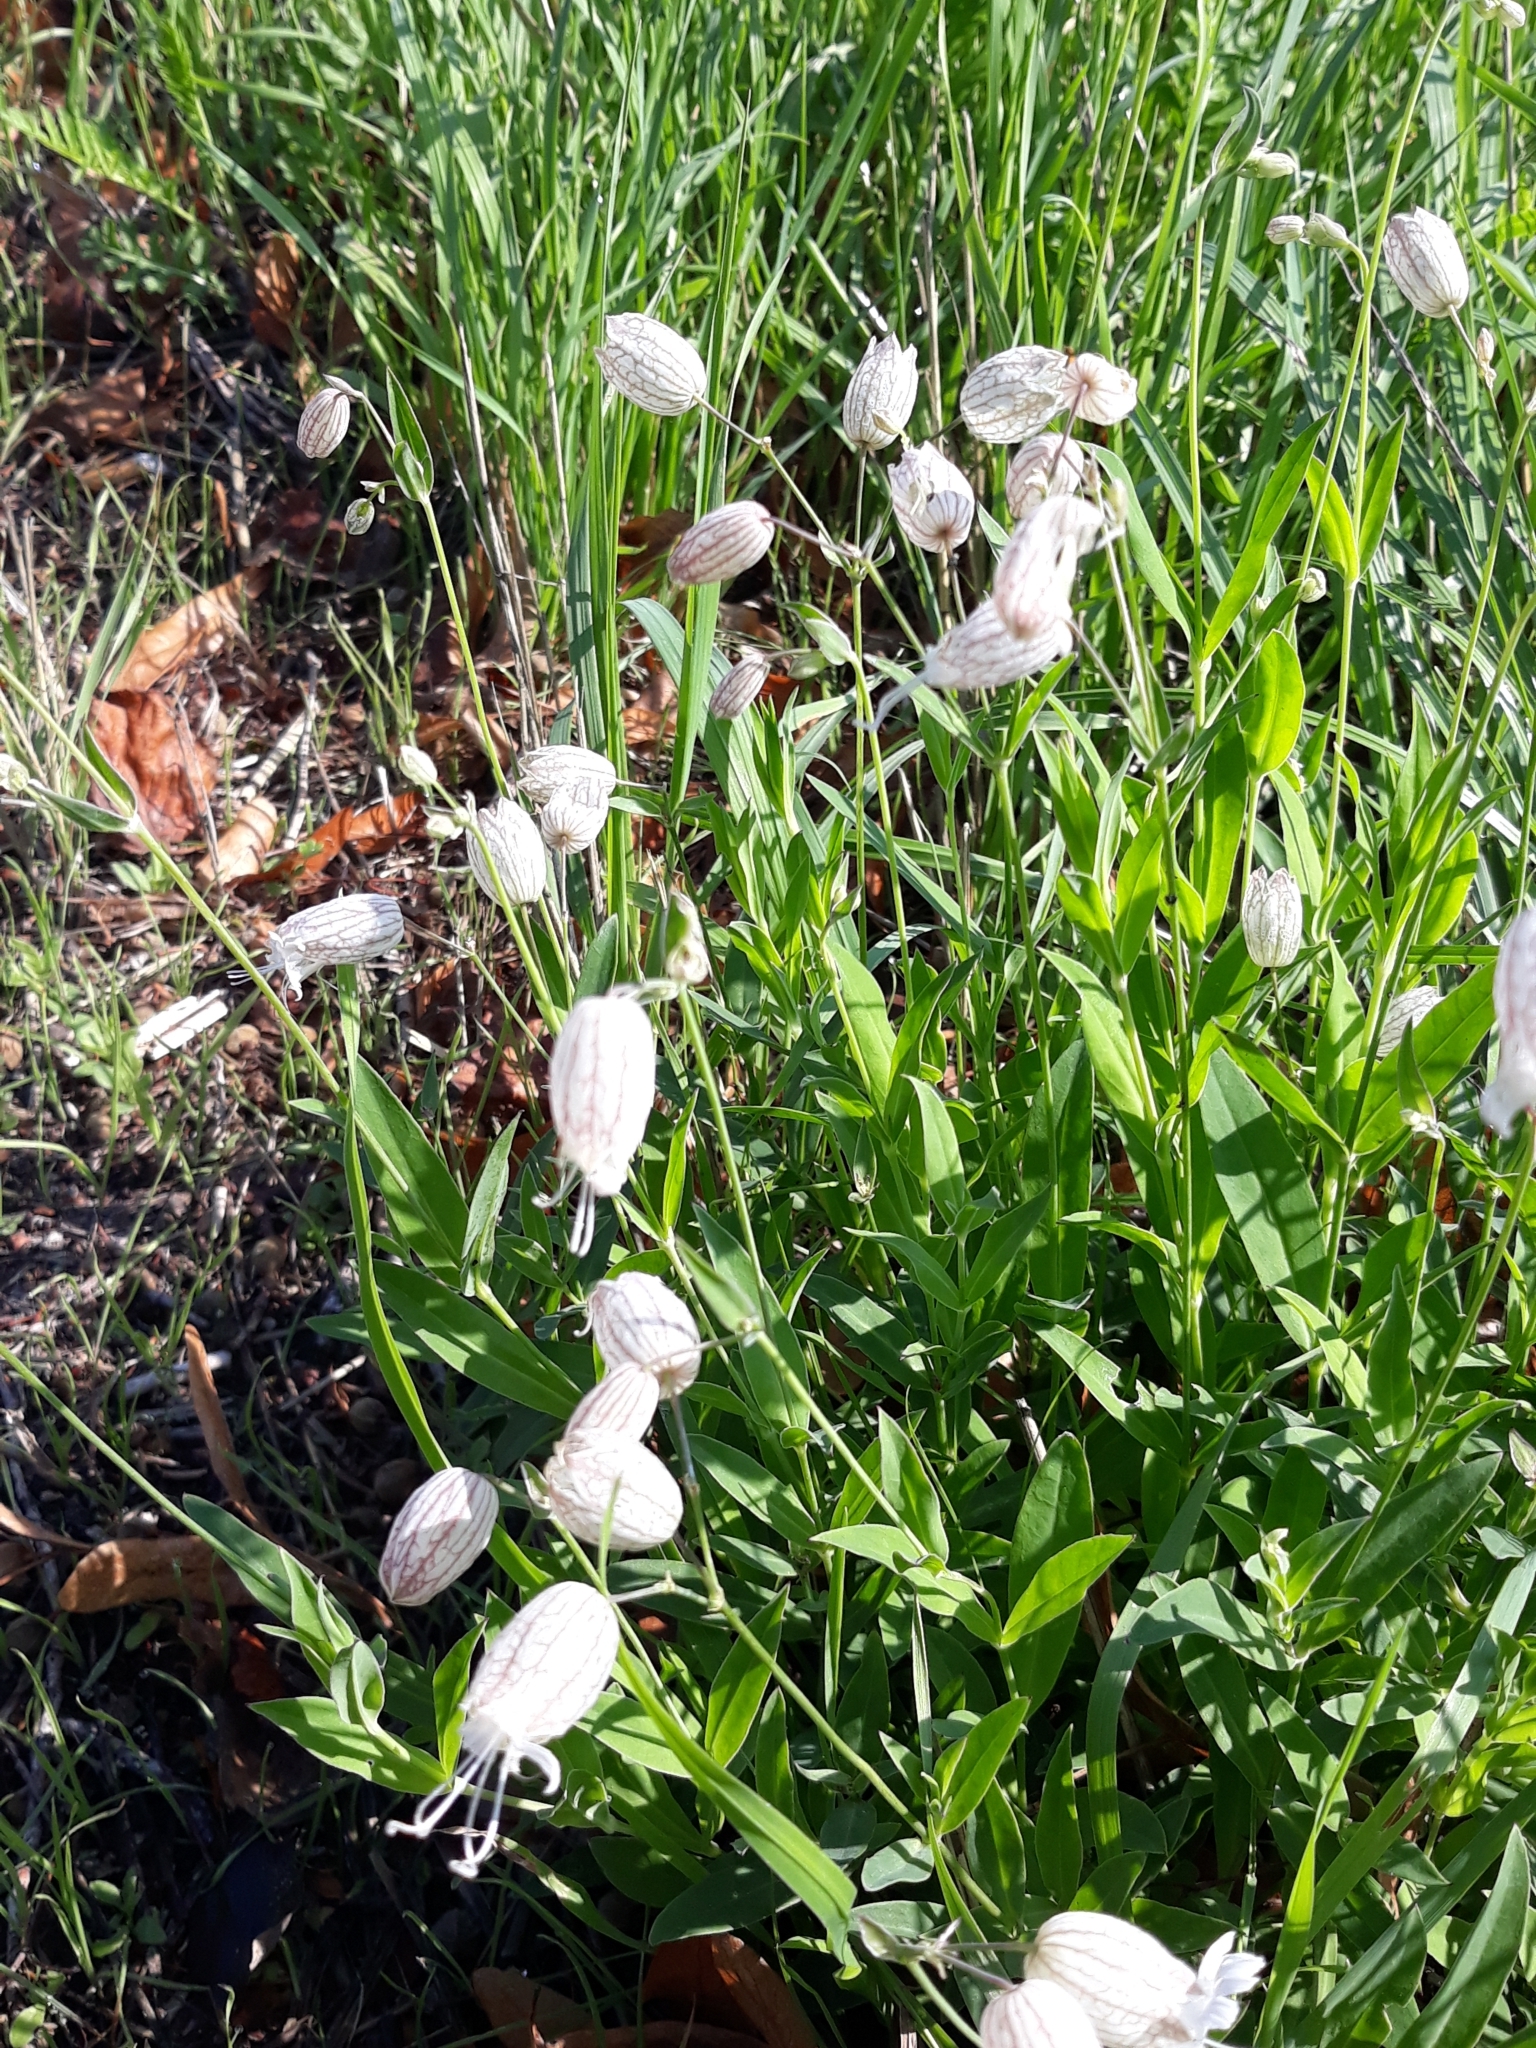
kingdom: Plantae
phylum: Tracheophyta
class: Magnoliopsida
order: Caryophyllales
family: Caryophyllaceae
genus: Silene
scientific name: Silene vulgaris
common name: Bladder campion
